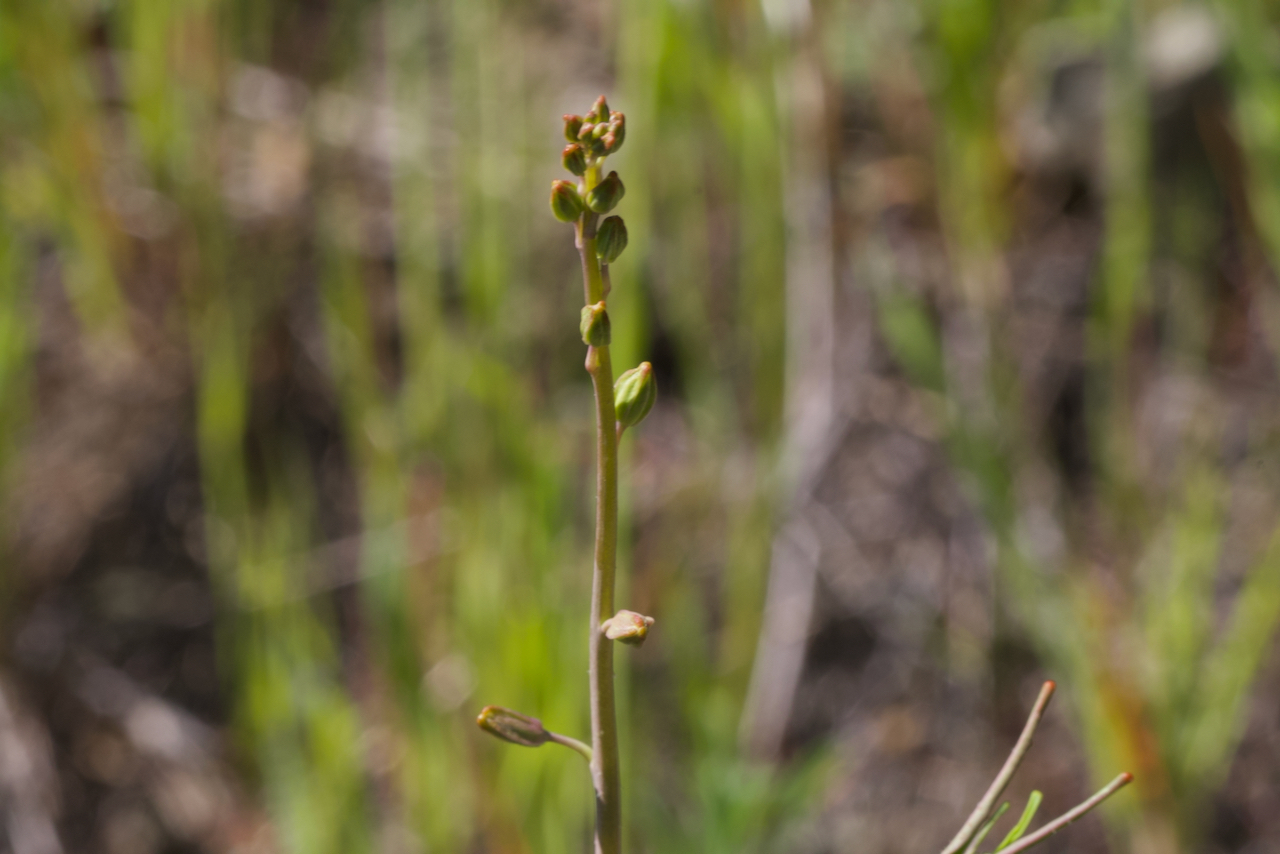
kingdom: Plantae
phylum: Tracheophyta
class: Magnoliopsida
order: Brassicales
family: Brassicaceae
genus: Streptanthus
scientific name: Streptanthus glandulosus
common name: Jewel-flower
